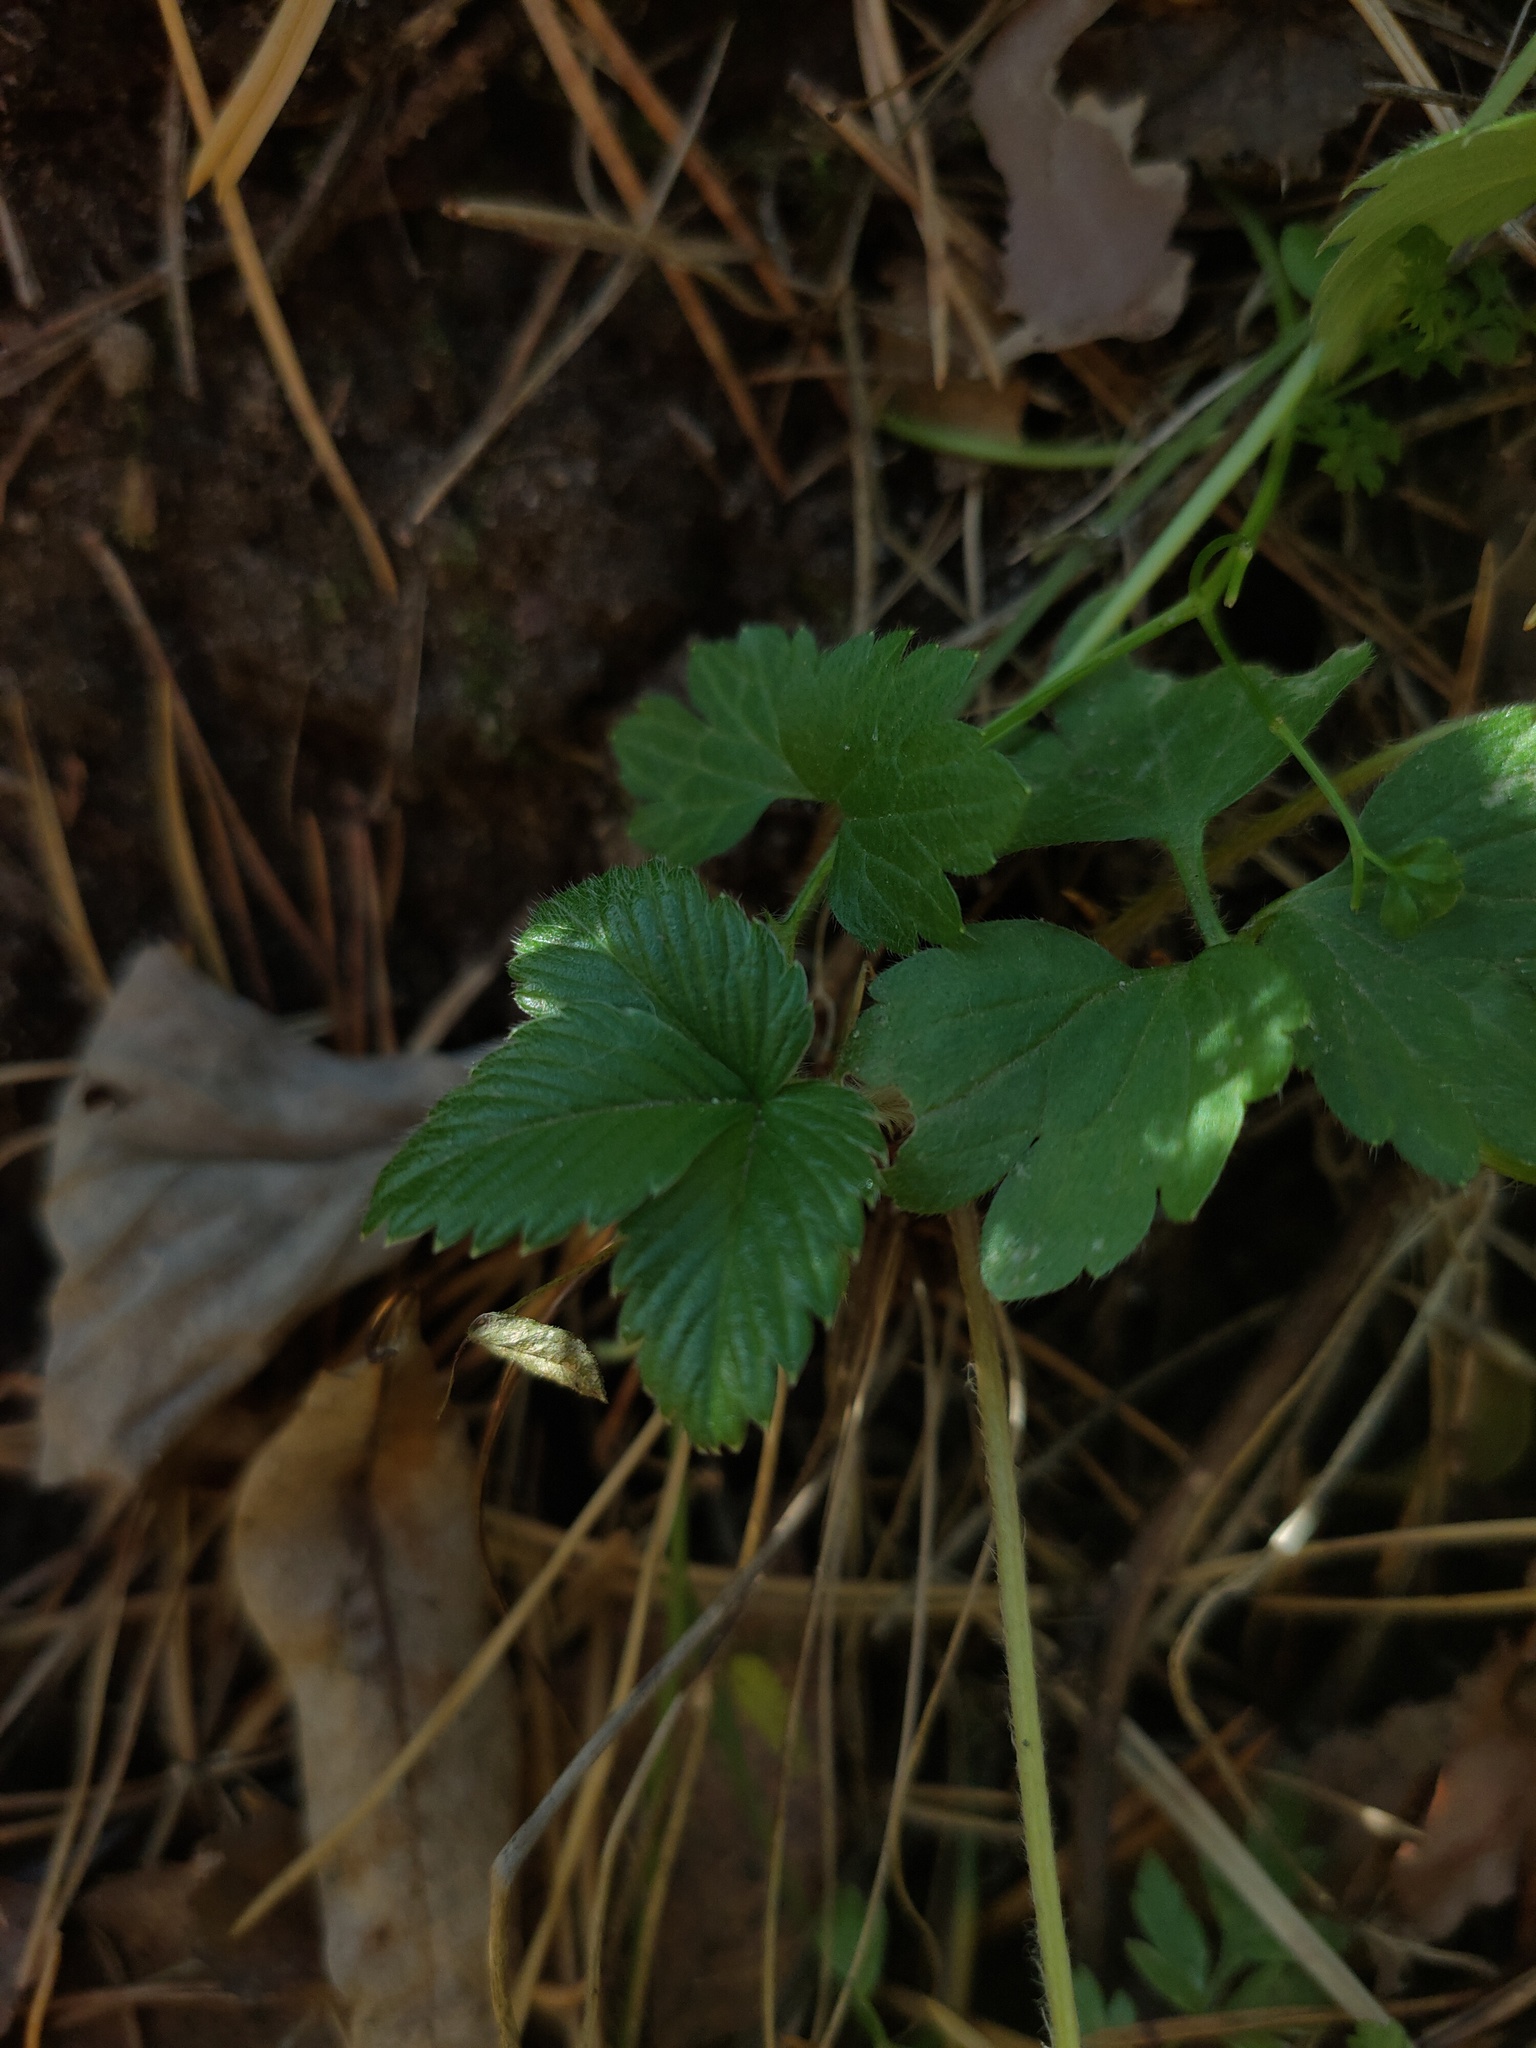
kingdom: Plantae
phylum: Tracheophyta
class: Magnoliopsida
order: Rosales
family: Rosaceae
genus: Fragaria
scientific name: Fragaria vesca
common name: Wild strawberry
